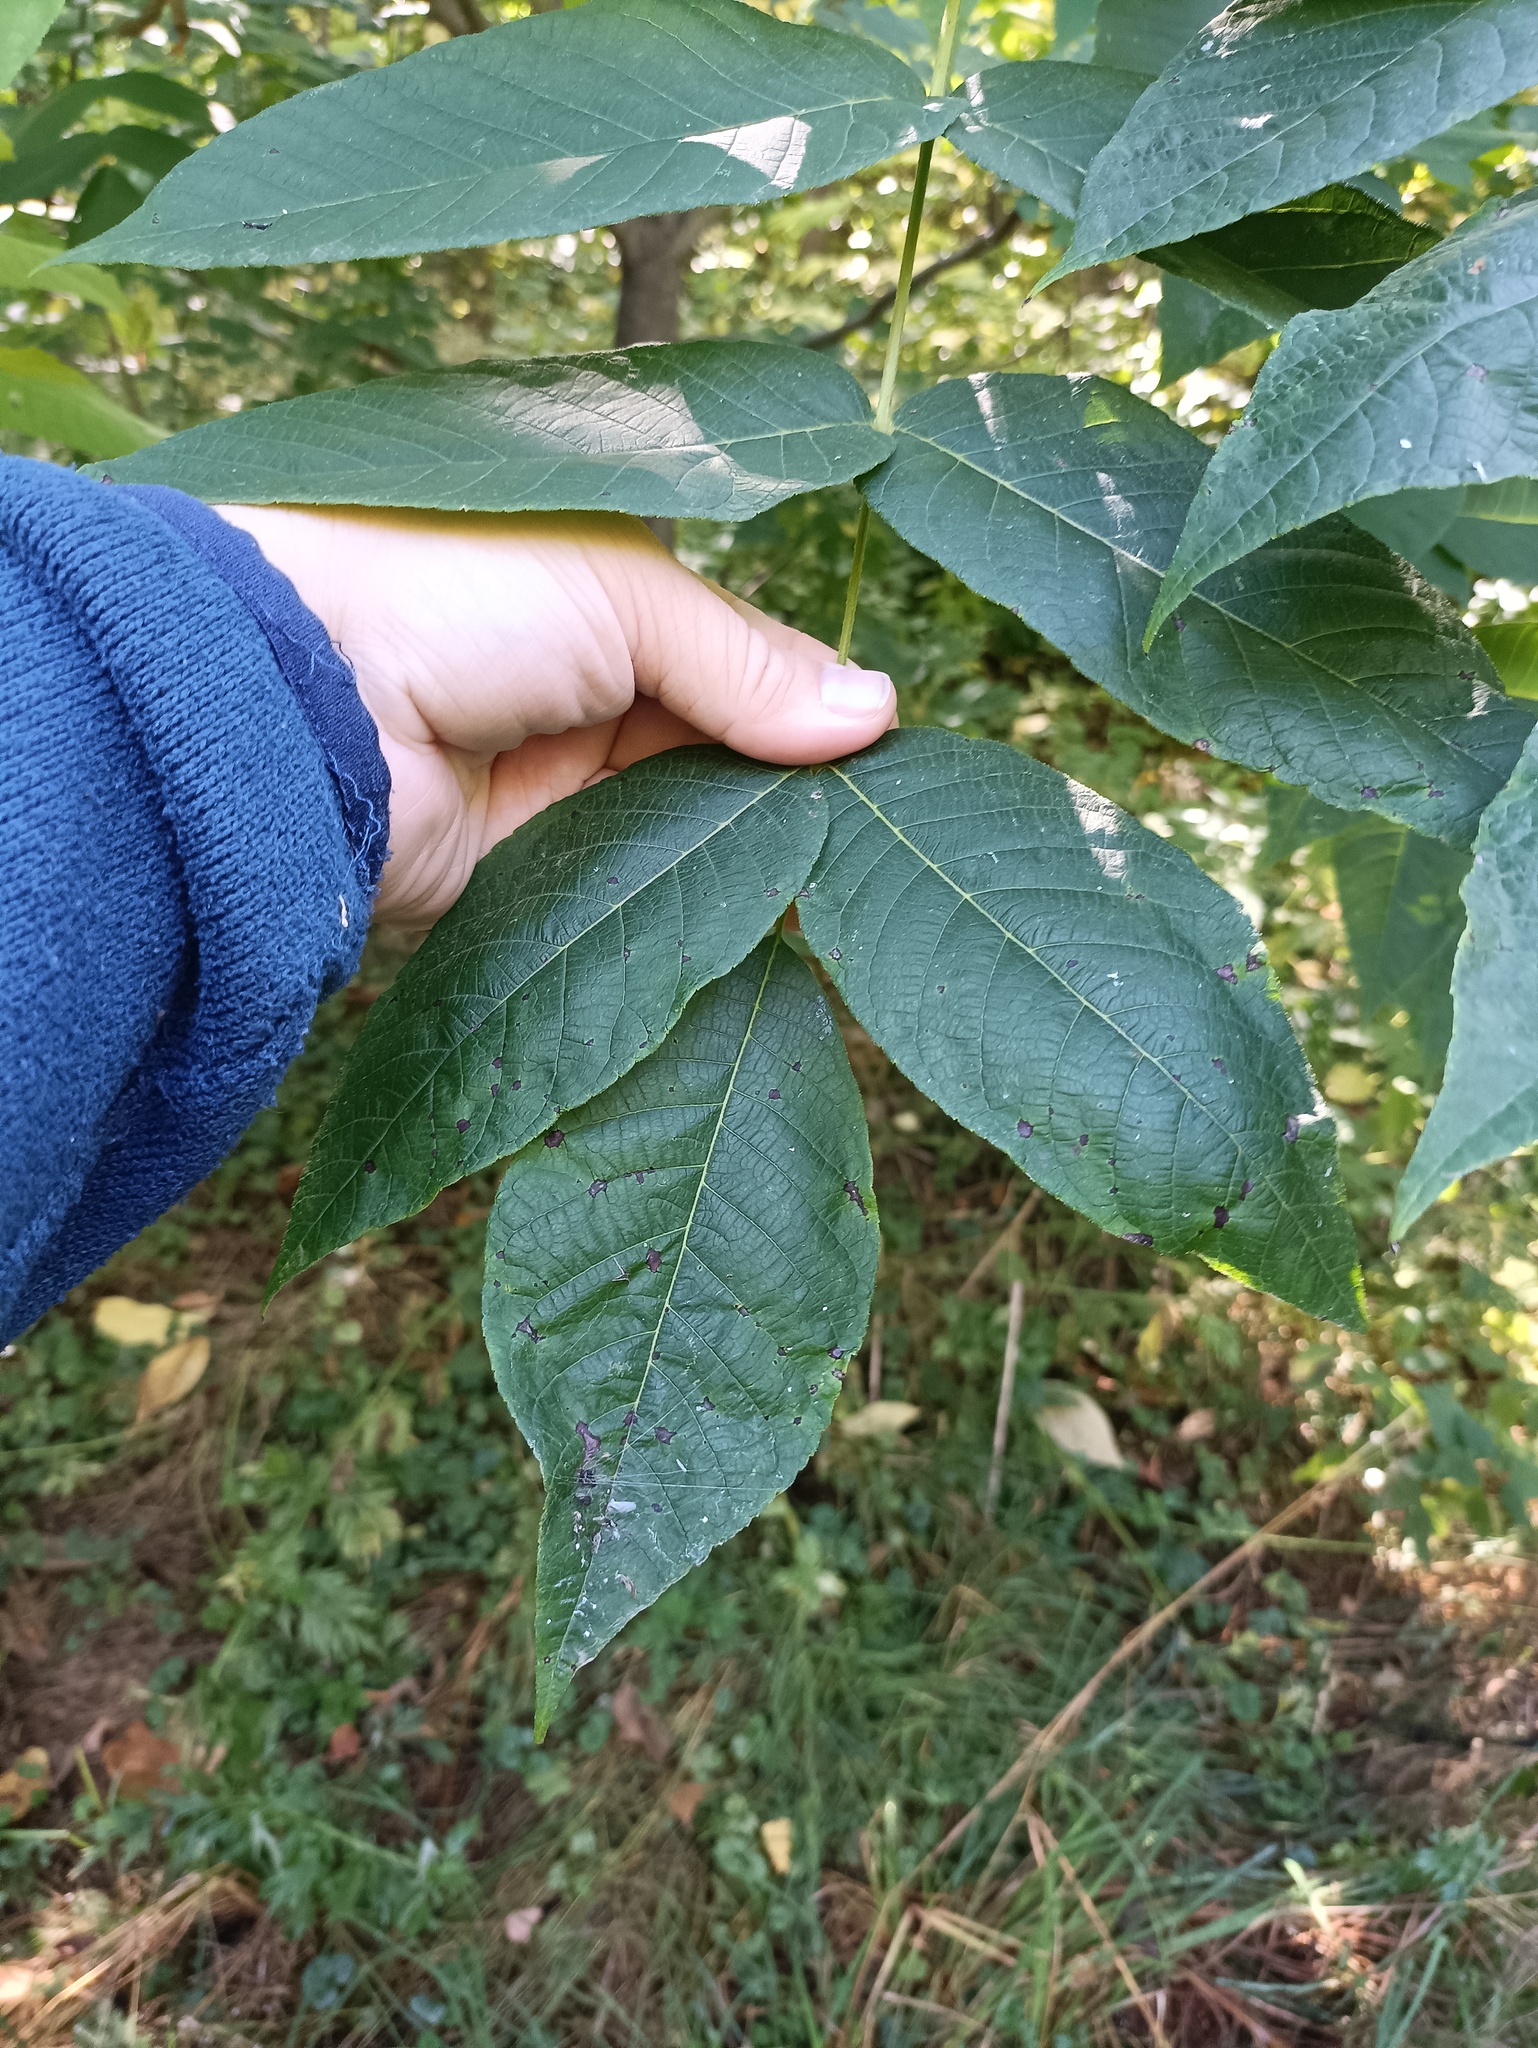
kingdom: Plantae
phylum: Tracheophyta
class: Magnoliopsida
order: Fagales
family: Juglandaceae
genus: Juglans
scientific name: Juglans mandshurica
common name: Manchurian walnut
